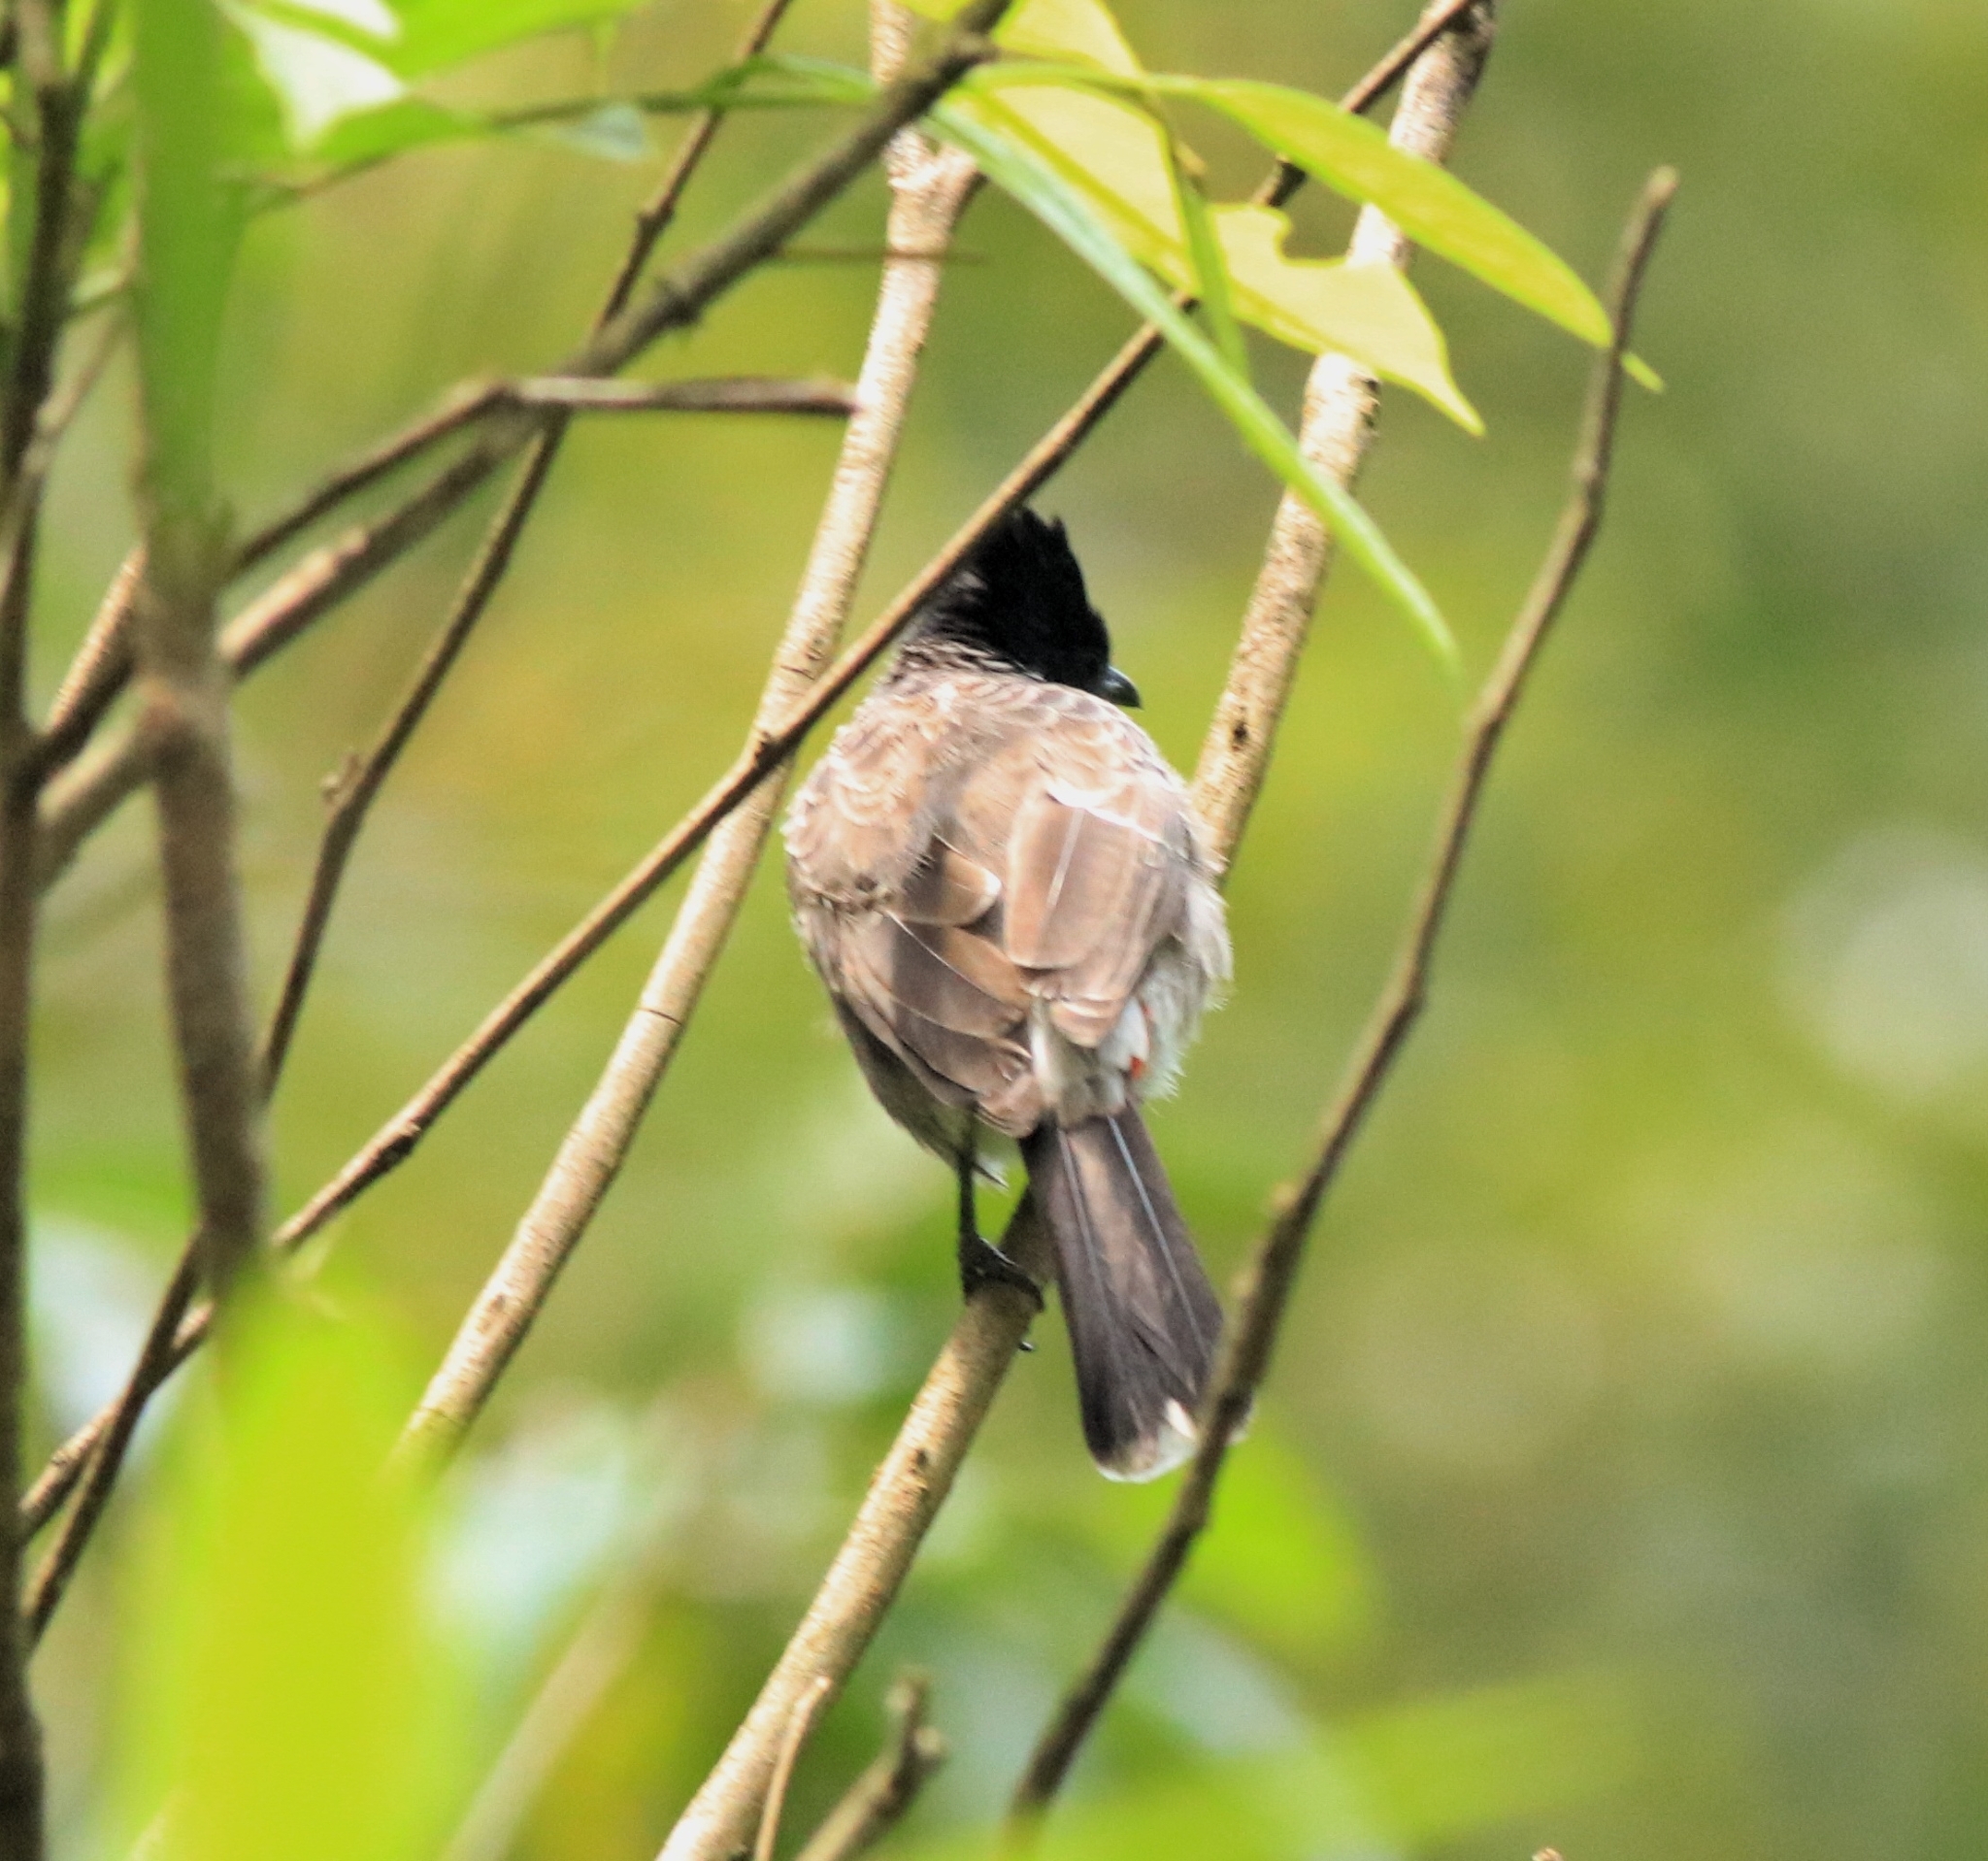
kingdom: Animalia
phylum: Chordata
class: Aves
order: Passeriformes
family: Pycnonotidae
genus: Pycnonotus
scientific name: Pycnonotus cafer
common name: Red-vented bulbul
